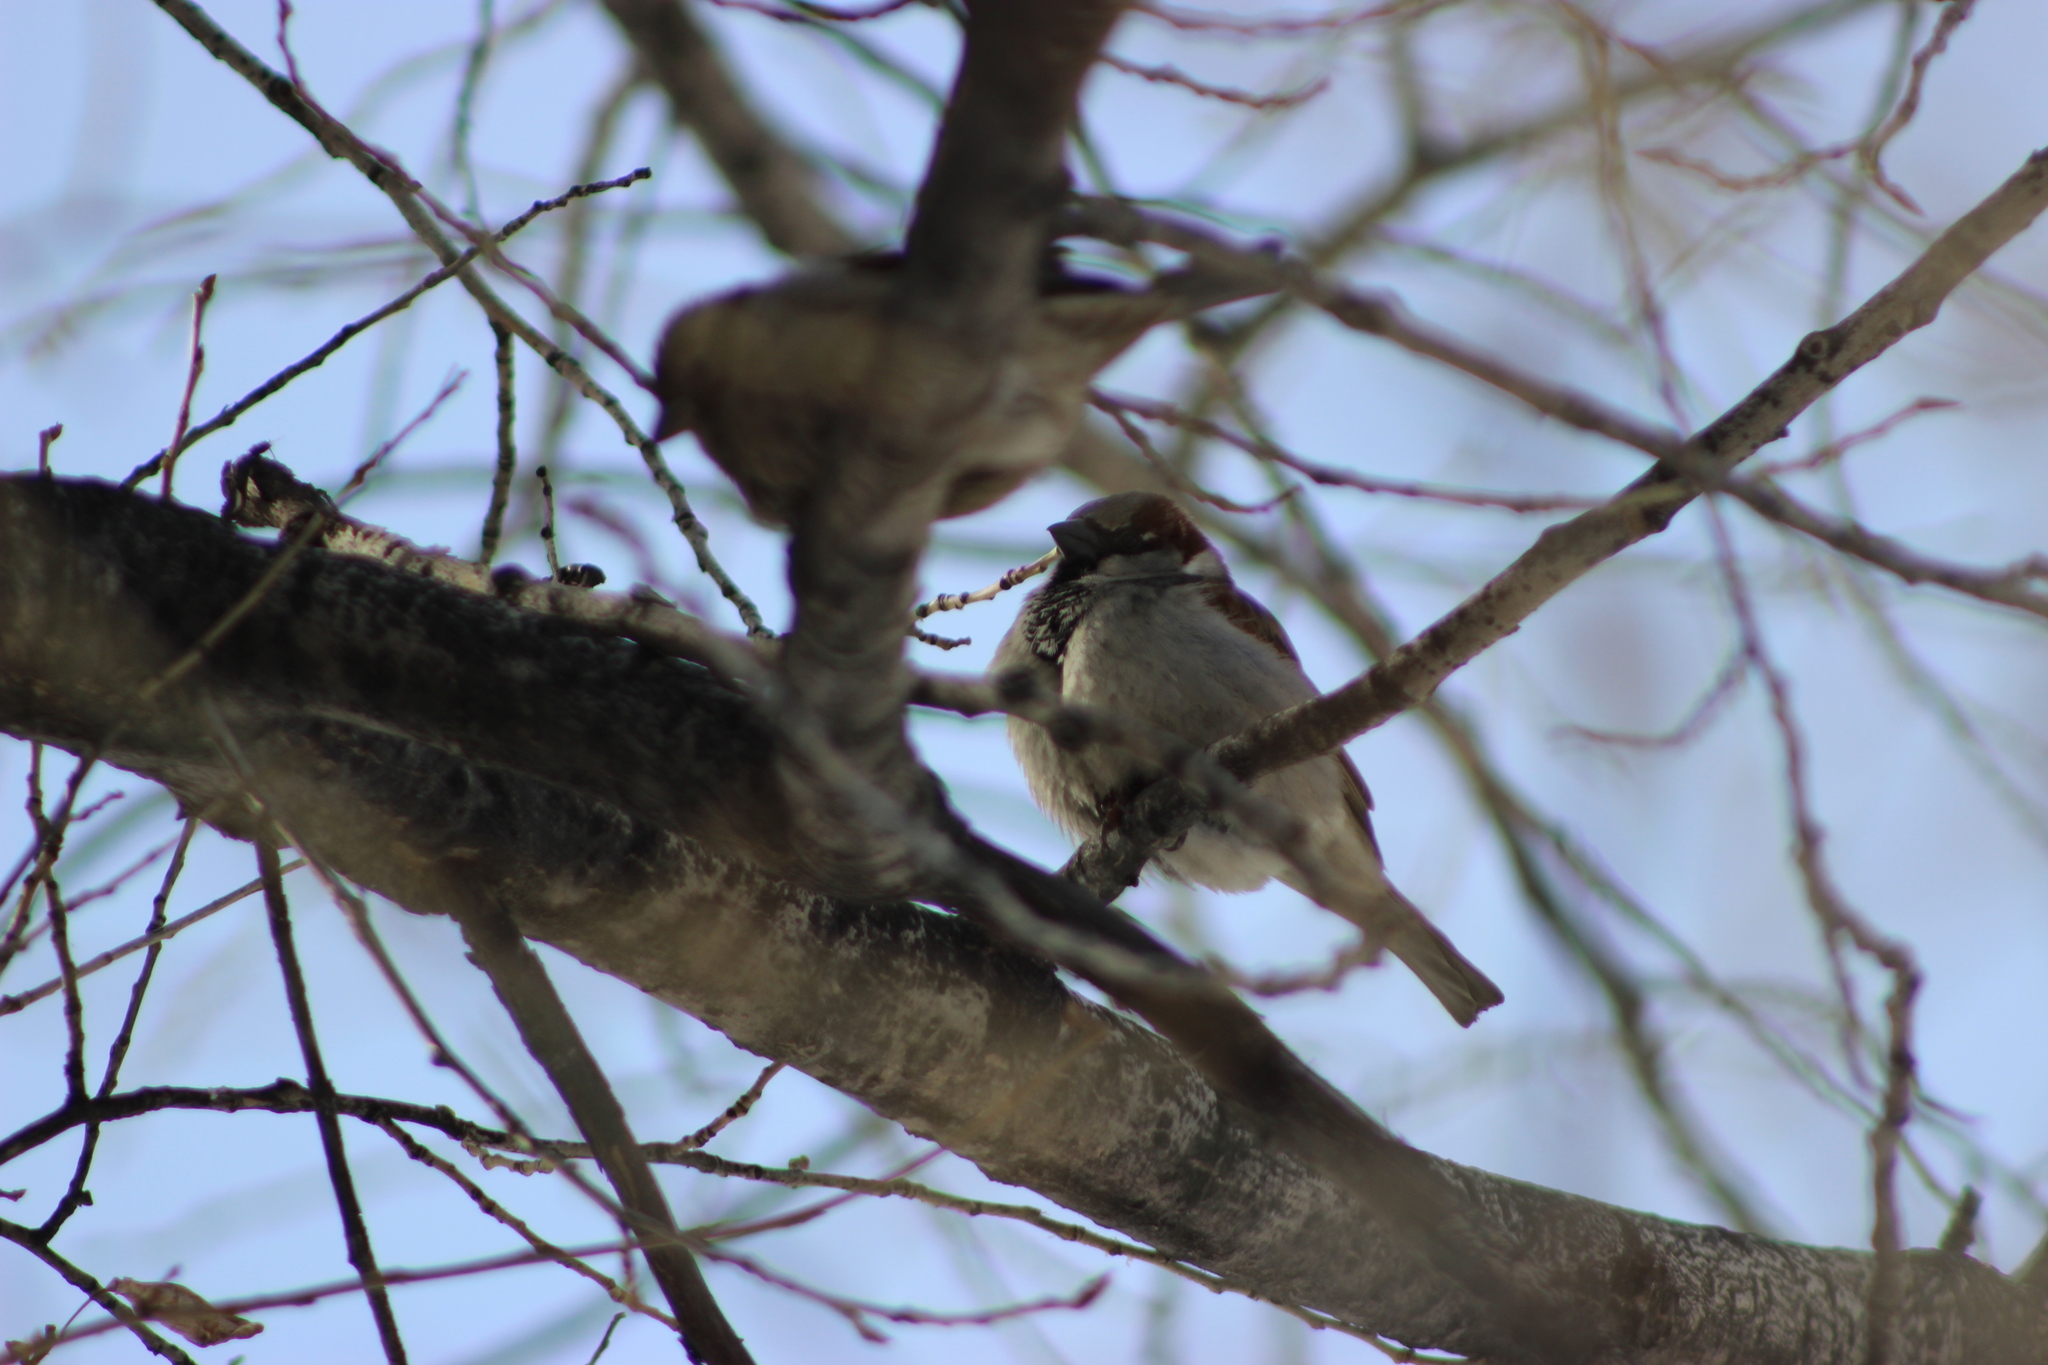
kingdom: Animalia
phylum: Chordata
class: Aves
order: Passeriformes
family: Passeridae
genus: Passer
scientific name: Passer domesticus
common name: House sparrow
